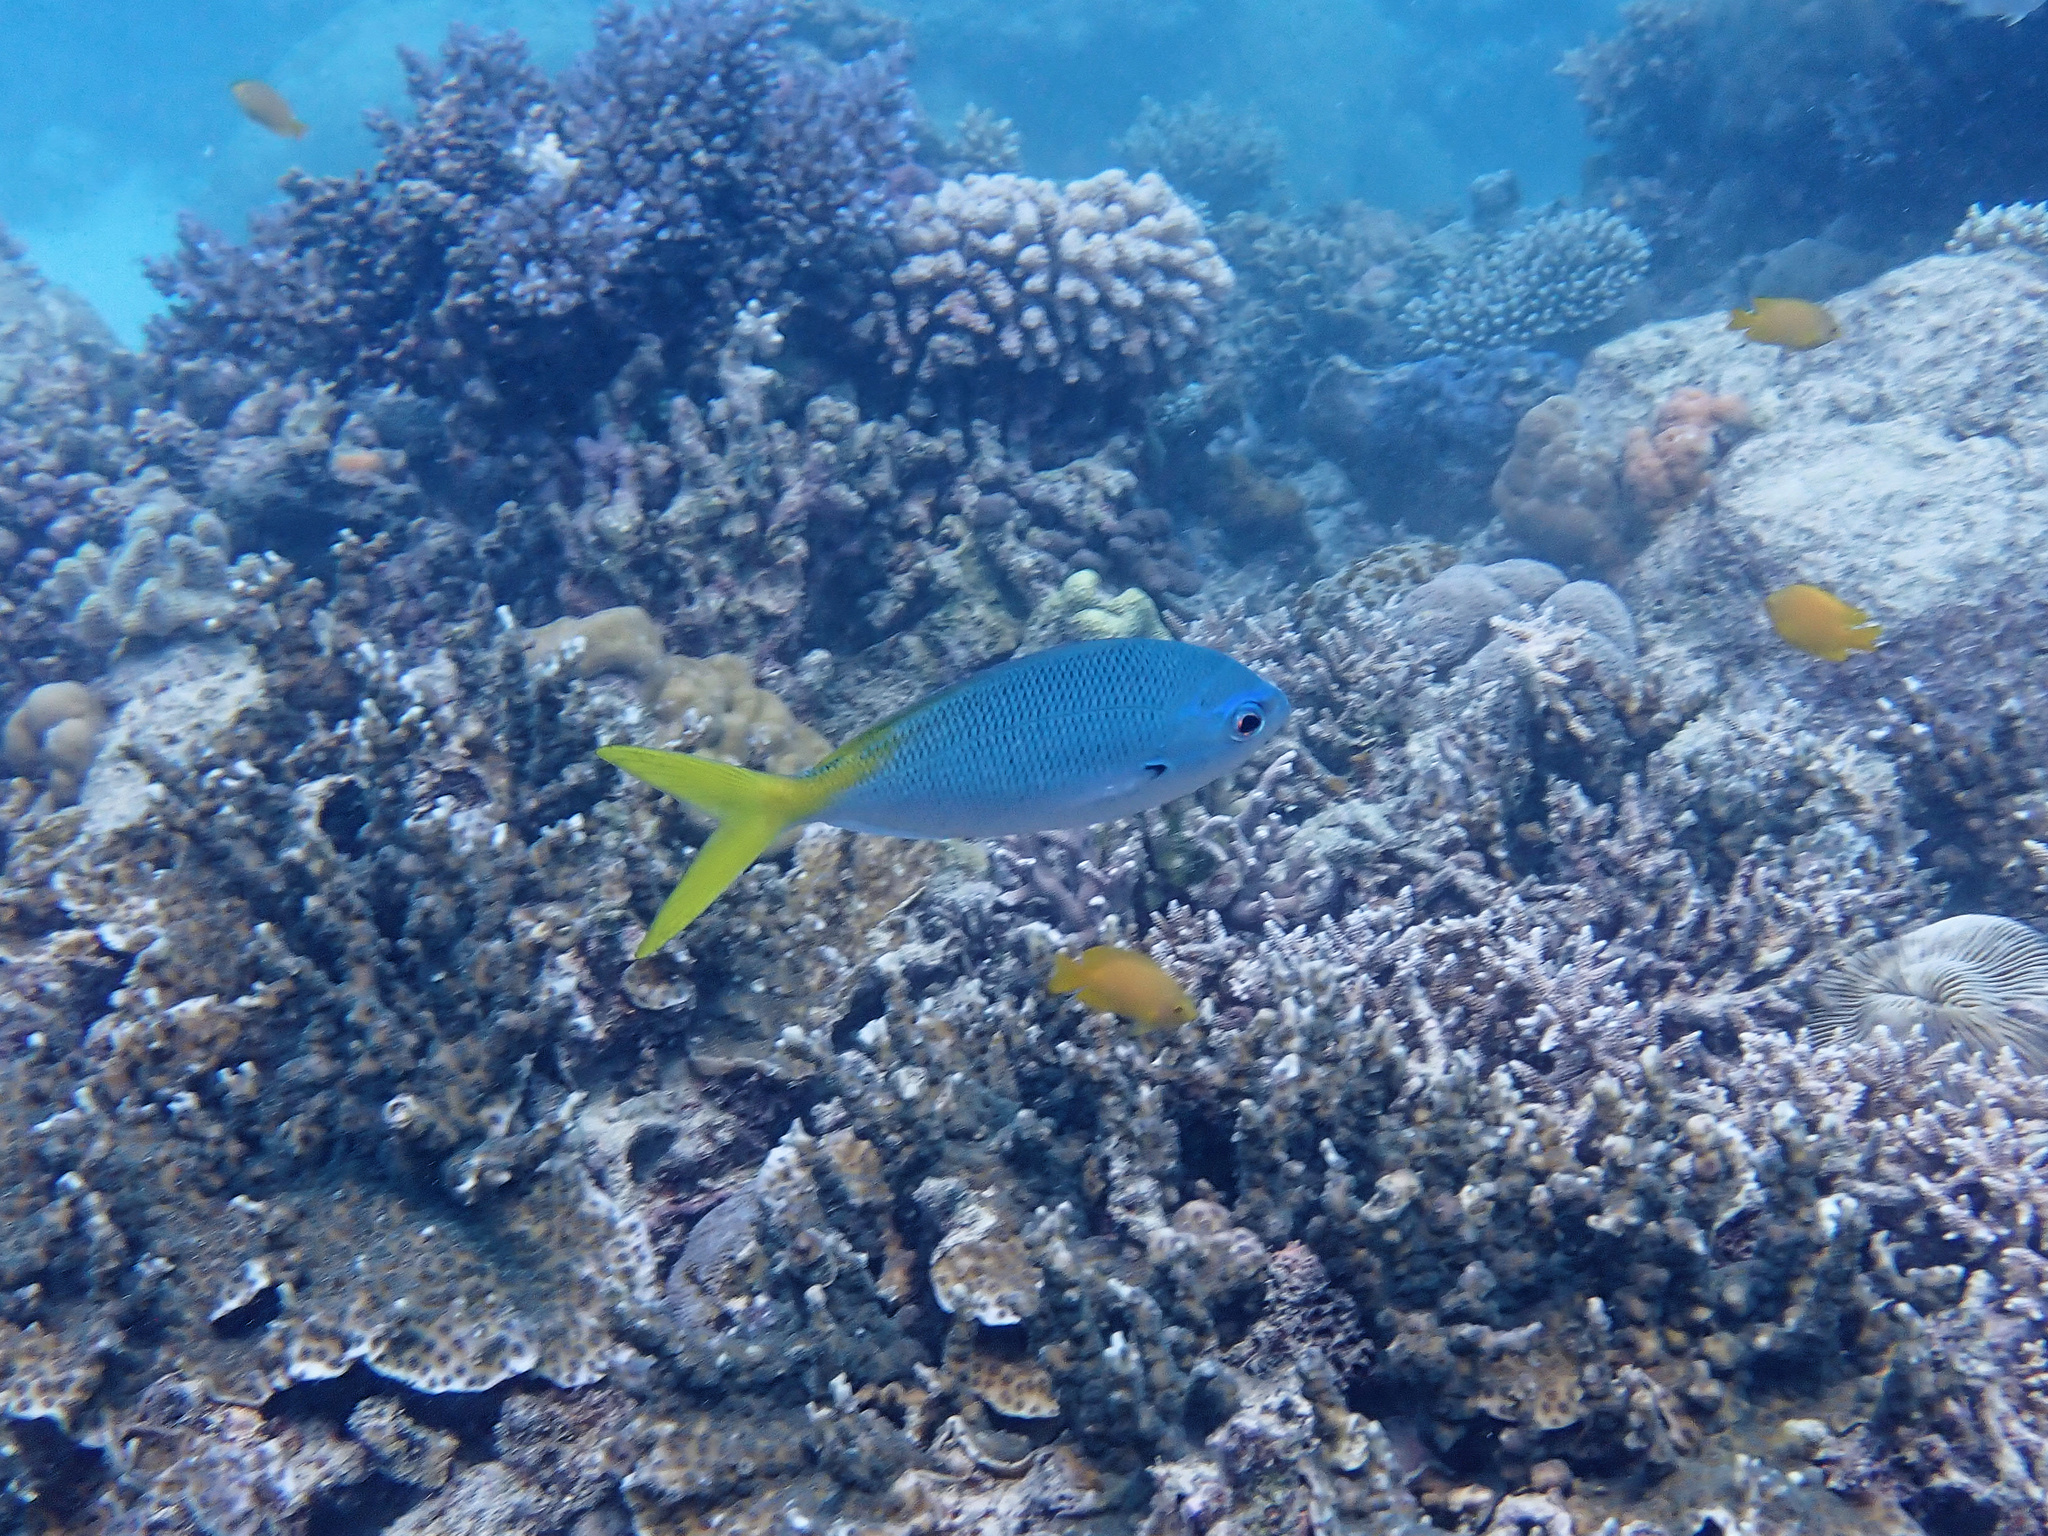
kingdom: Animalia
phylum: Chordata
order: Perciformes
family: Caesionidae
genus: Caesio
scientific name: Caesio cuning
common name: Red-bellied fusilier
